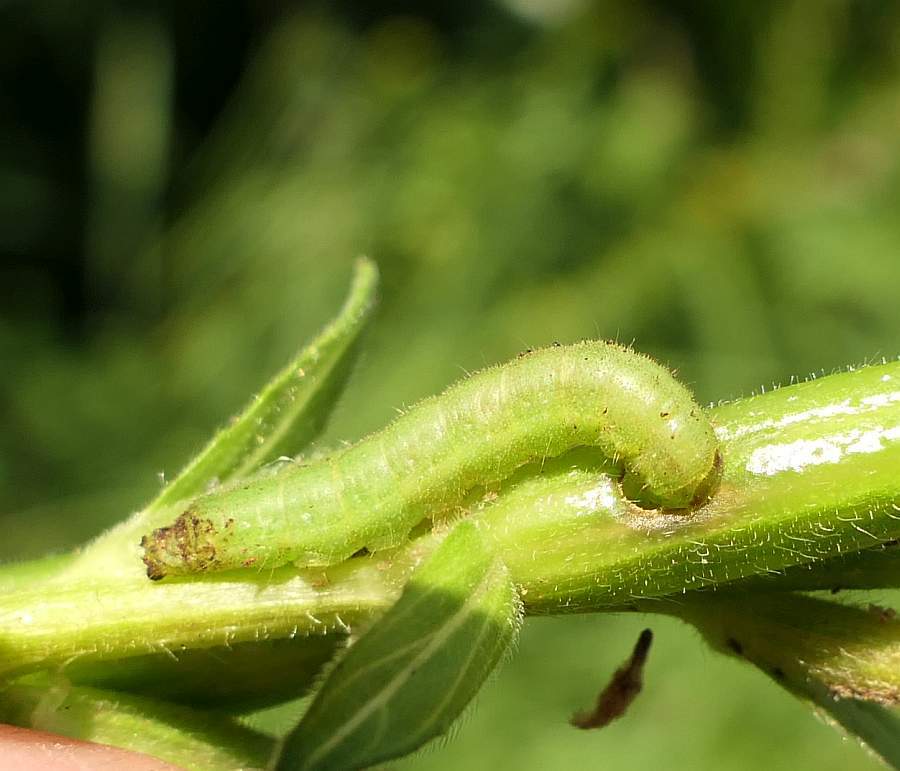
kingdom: Animalia
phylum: Arthropoda
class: Insecta
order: Lepidoptera
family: Noctuidae
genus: Schinia
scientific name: Schinia florida
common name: Primrose moth
